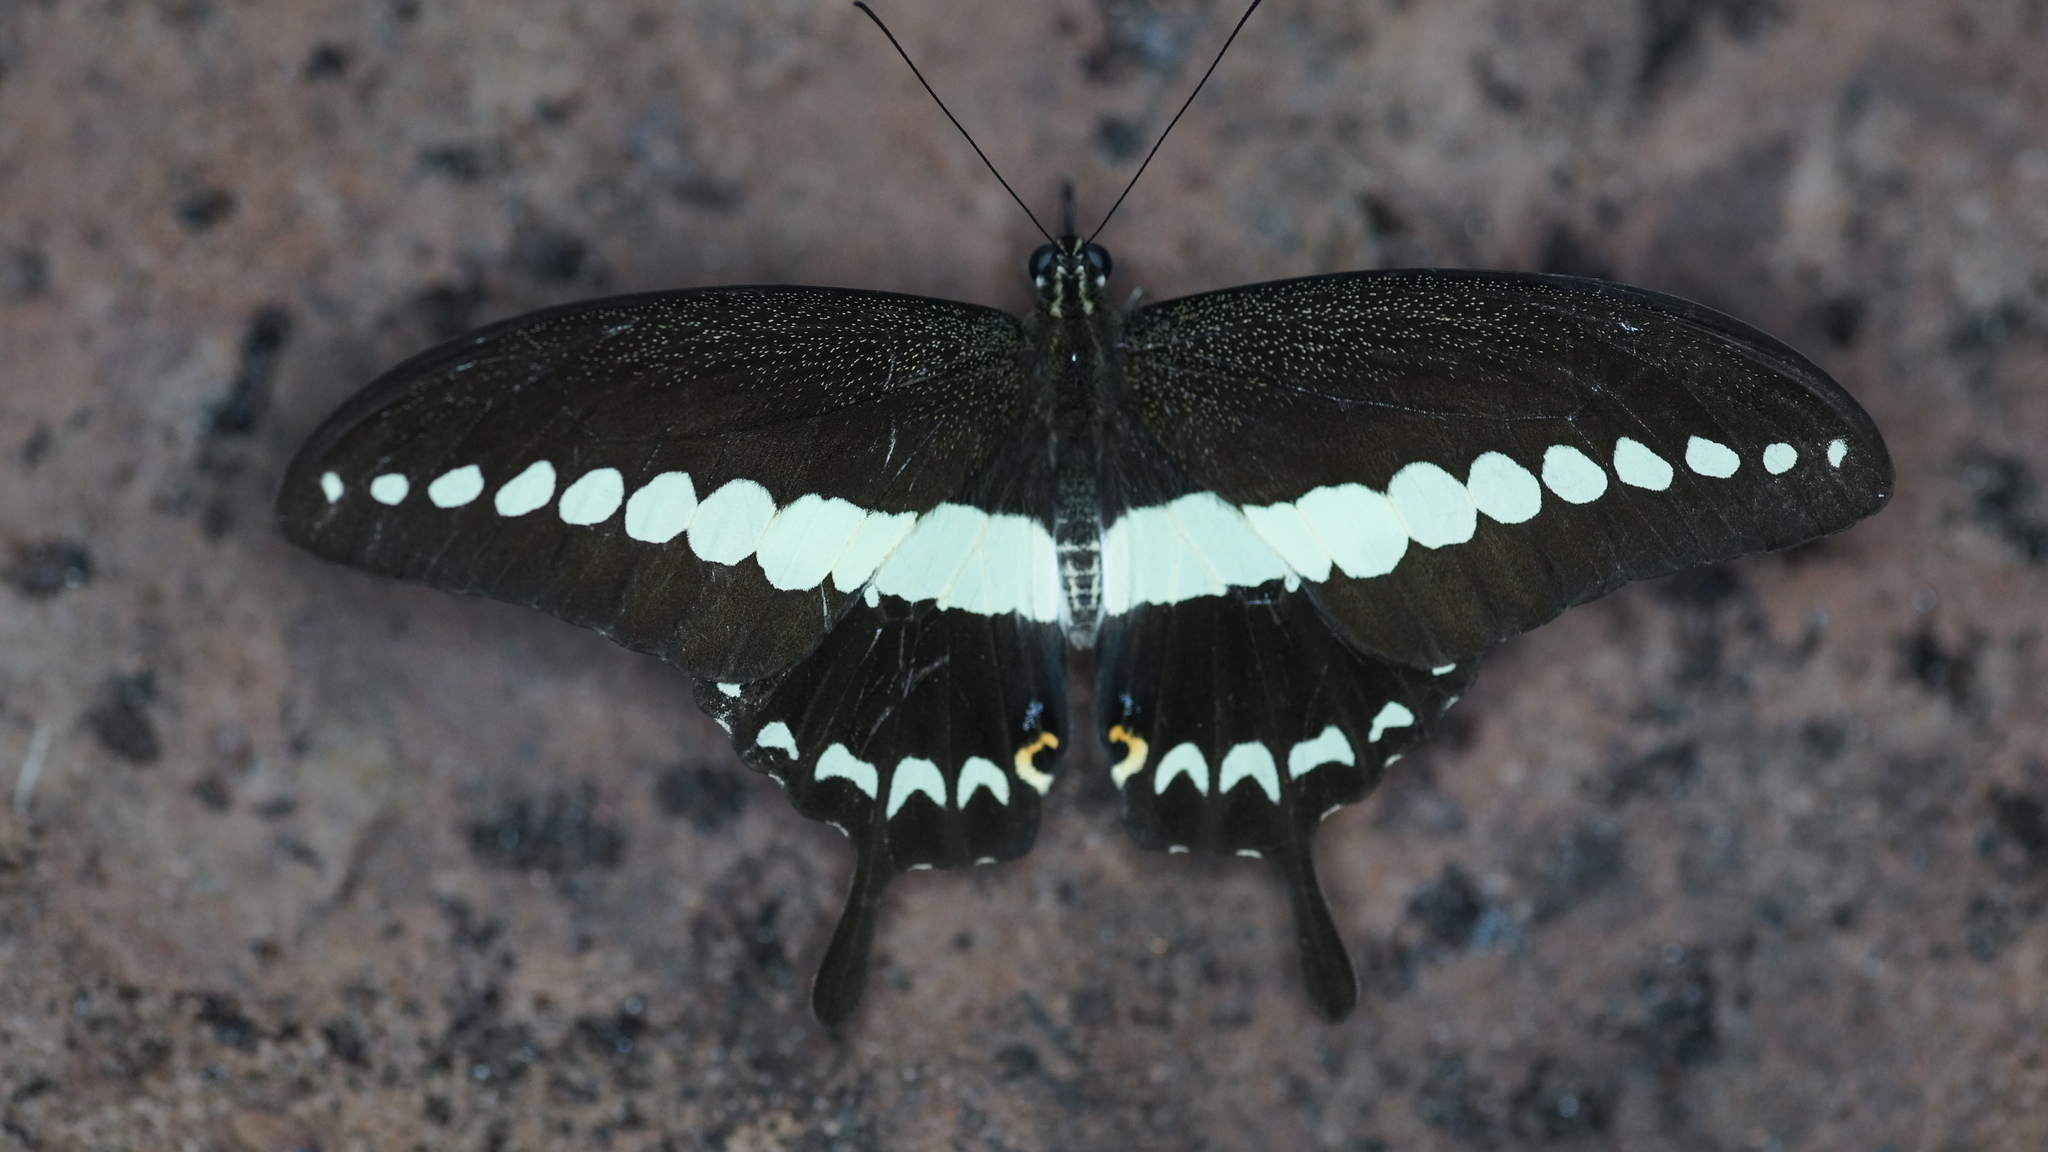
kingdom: Animalia
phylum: Arthropoda
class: Insecta
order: Lepidoptera
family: Papilionidae
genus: Papilio
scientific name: Papilio demolion
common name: Banded swallowtail
